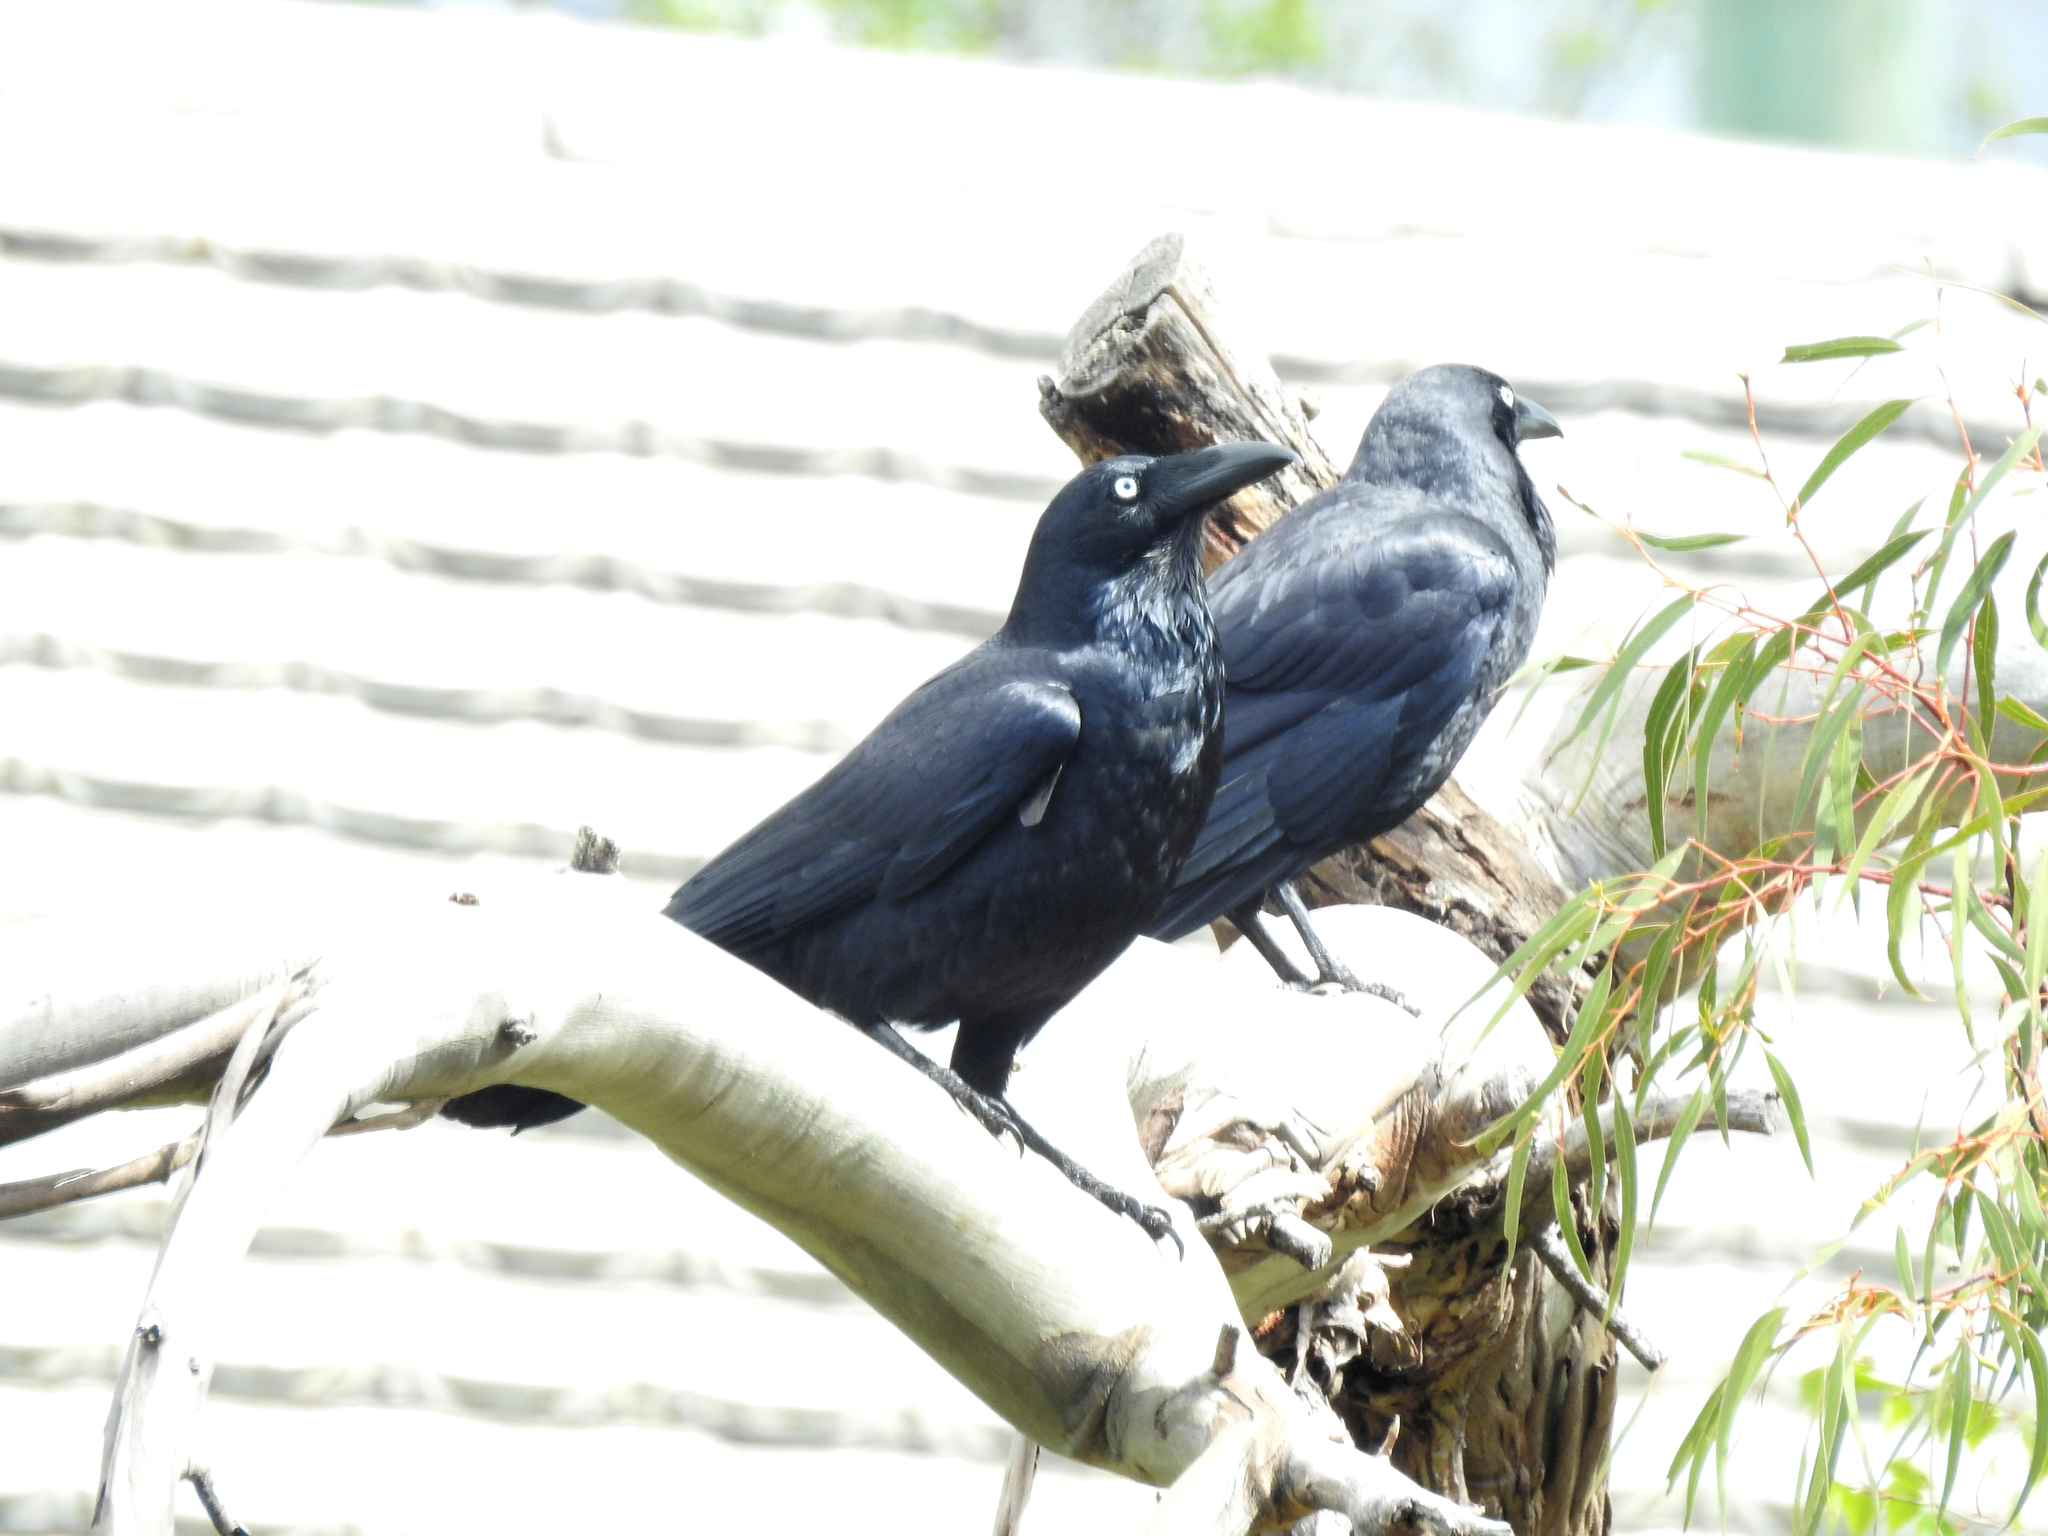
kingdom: Animalia
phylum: Chordata
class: Aves
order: Passeriformes
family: Corvidae
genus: Corvus
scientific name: Corvus tasmanicus
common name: Forest raven
